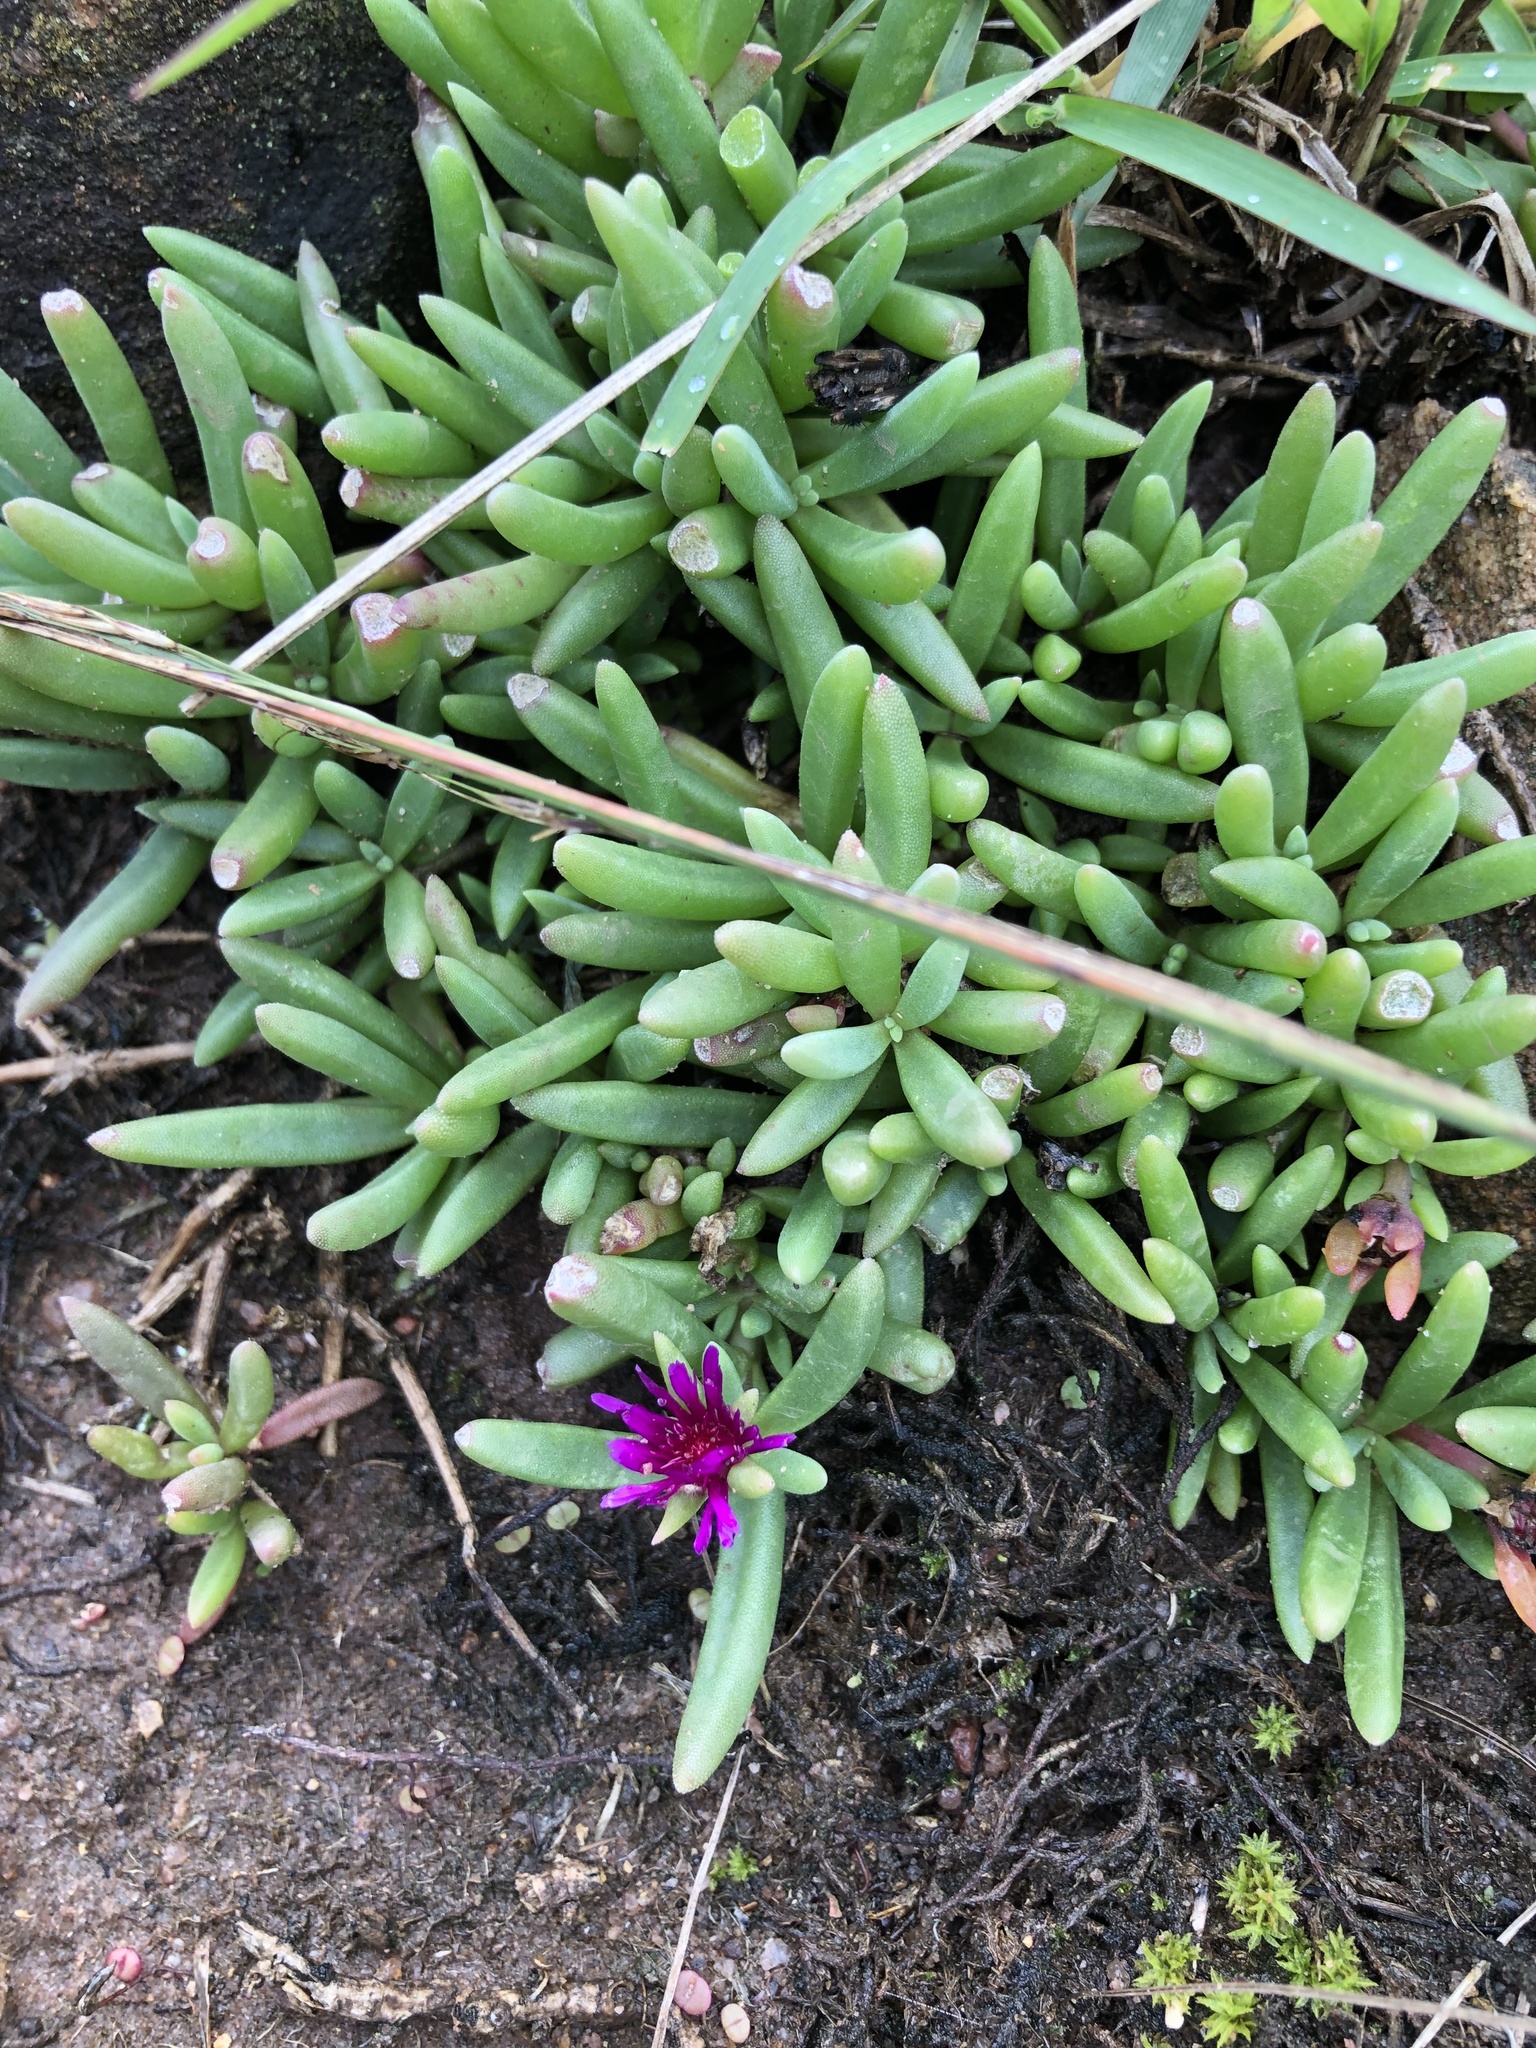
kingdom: Plantae
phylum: Tracheophyta
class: Magnoliopsida
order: Caryophyllales
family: Aizoaceae
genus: Delosperma
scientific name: Delosperma saturatum
